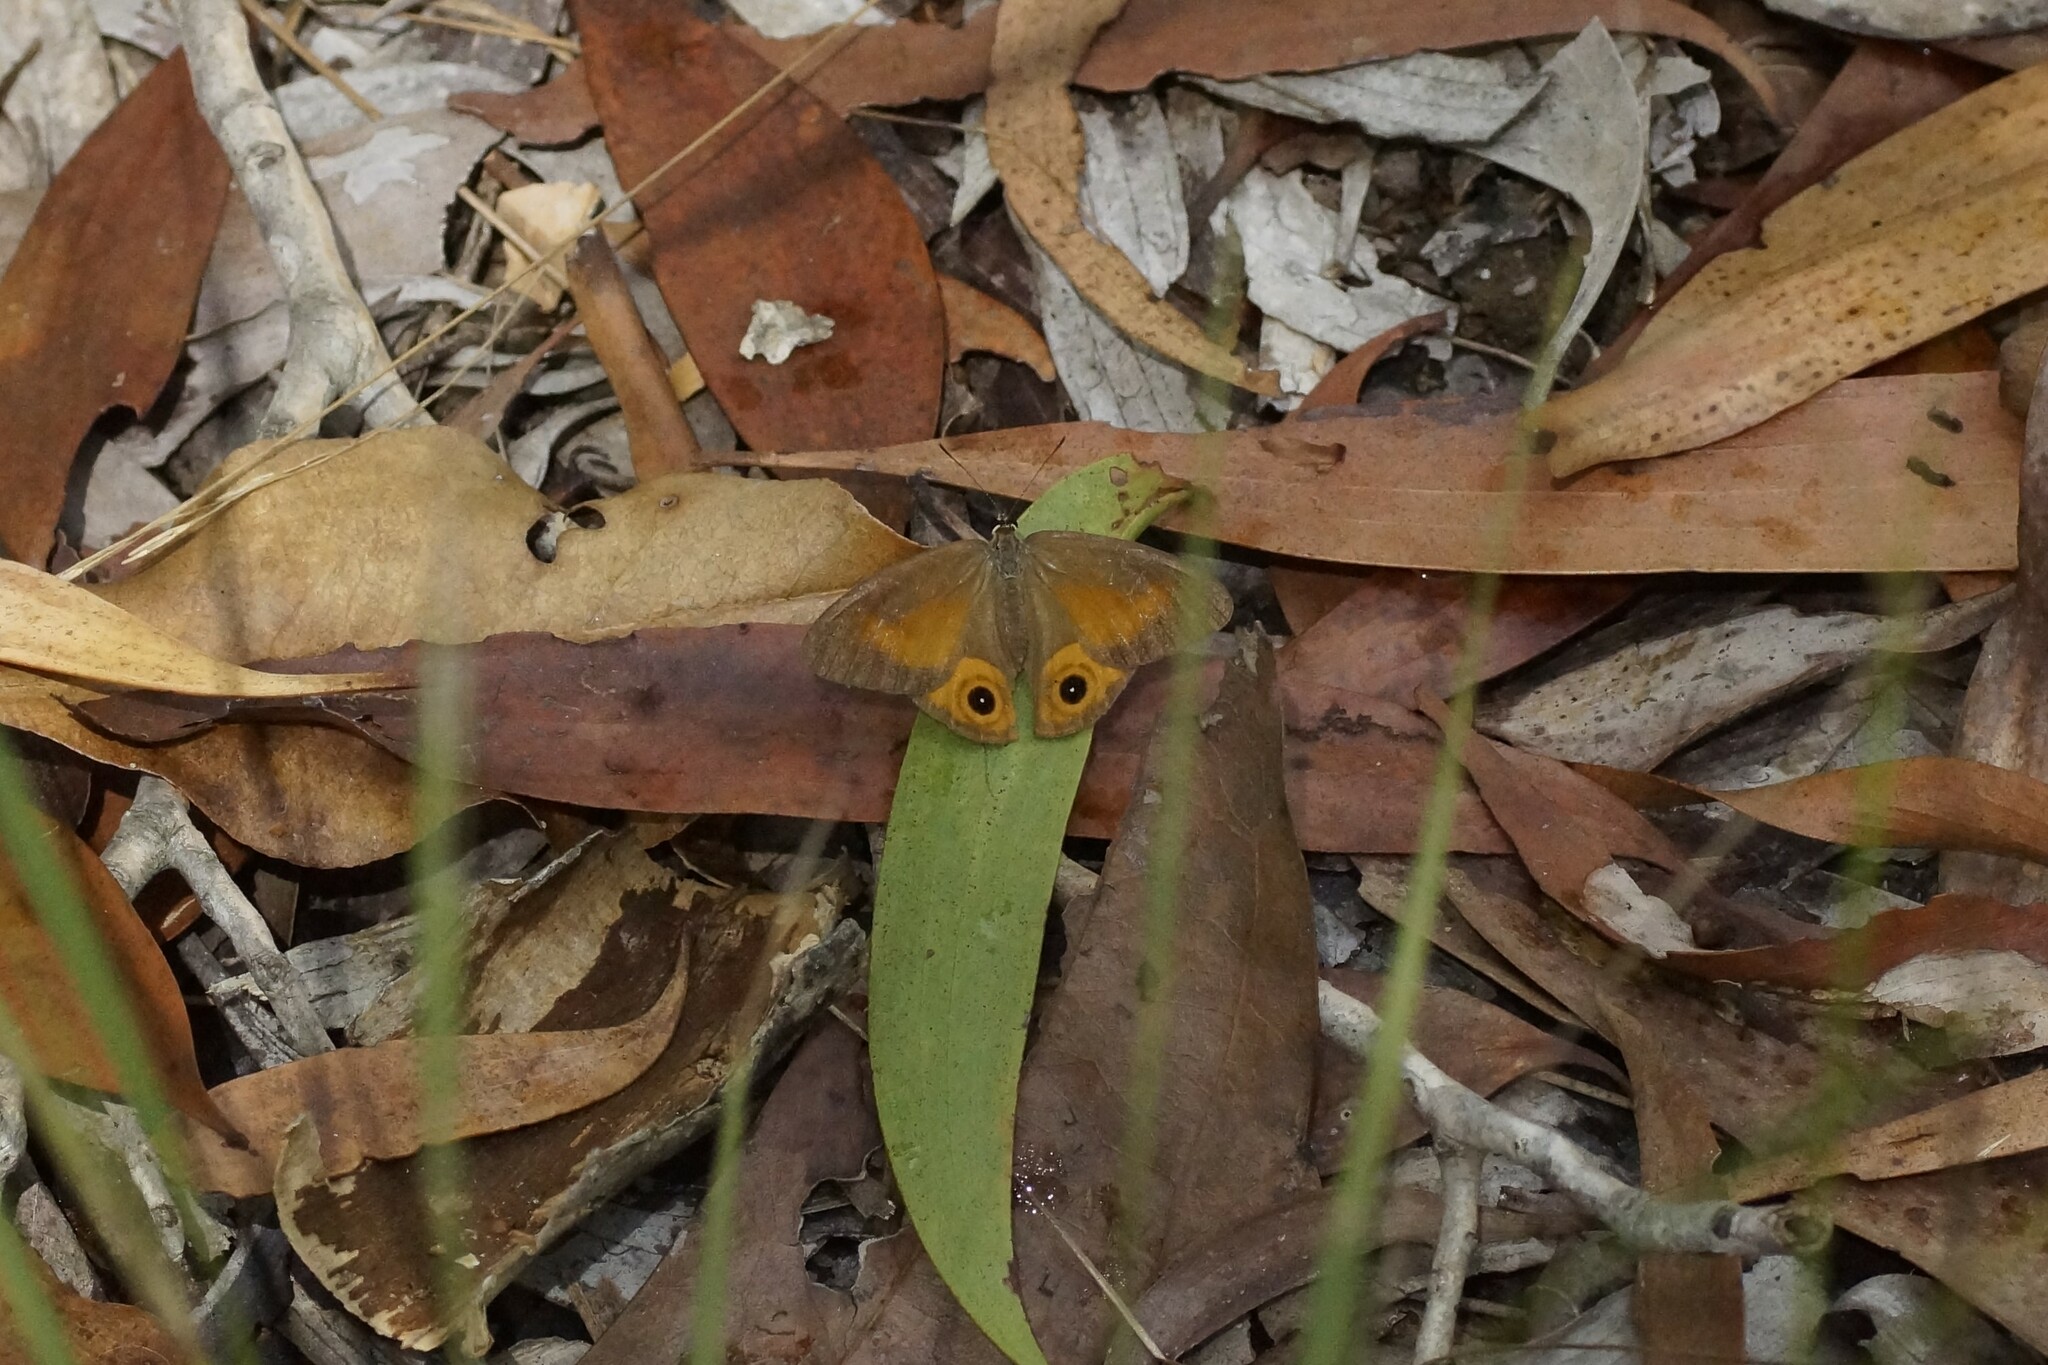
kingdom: Animalia
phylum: Arthropoda
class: Insecta
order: Lepidoptera
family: Nymphalidae
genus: Hypocysta
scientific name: Hypocysta irius
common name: Orange-streaked ringlet
